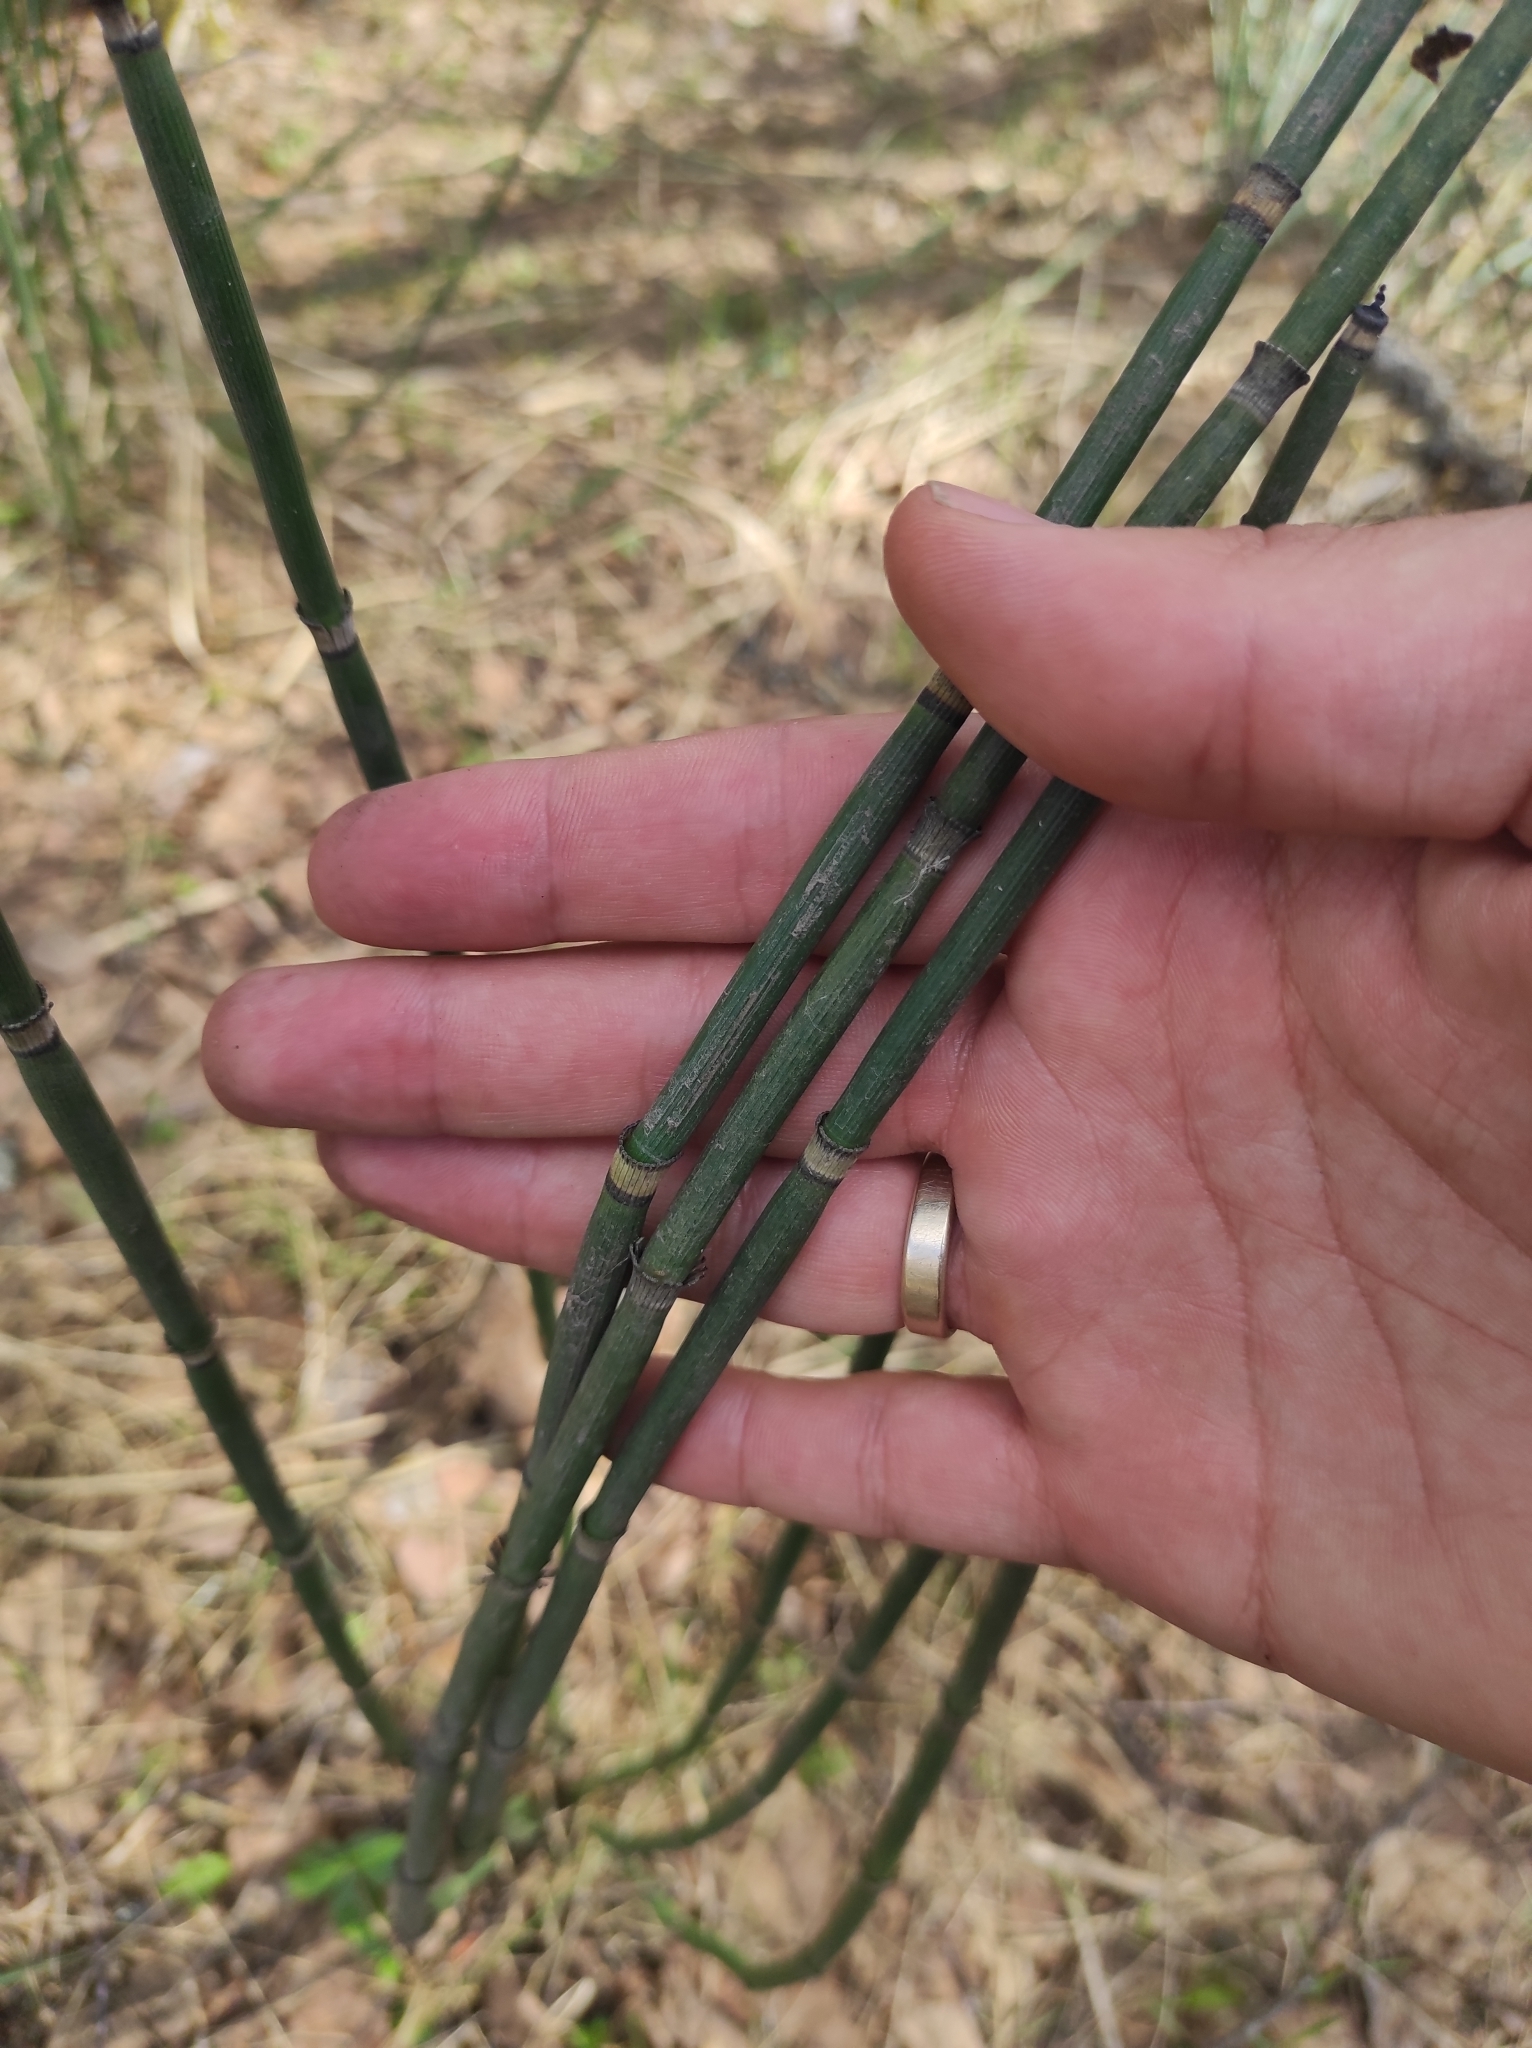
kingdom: Plantae
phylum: Tracheophyta
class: Polypodiopsida
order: Equisetales
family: Equisetaceae
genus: Equisetum
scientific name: Equisetum hyemale
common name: Rough horsetail
